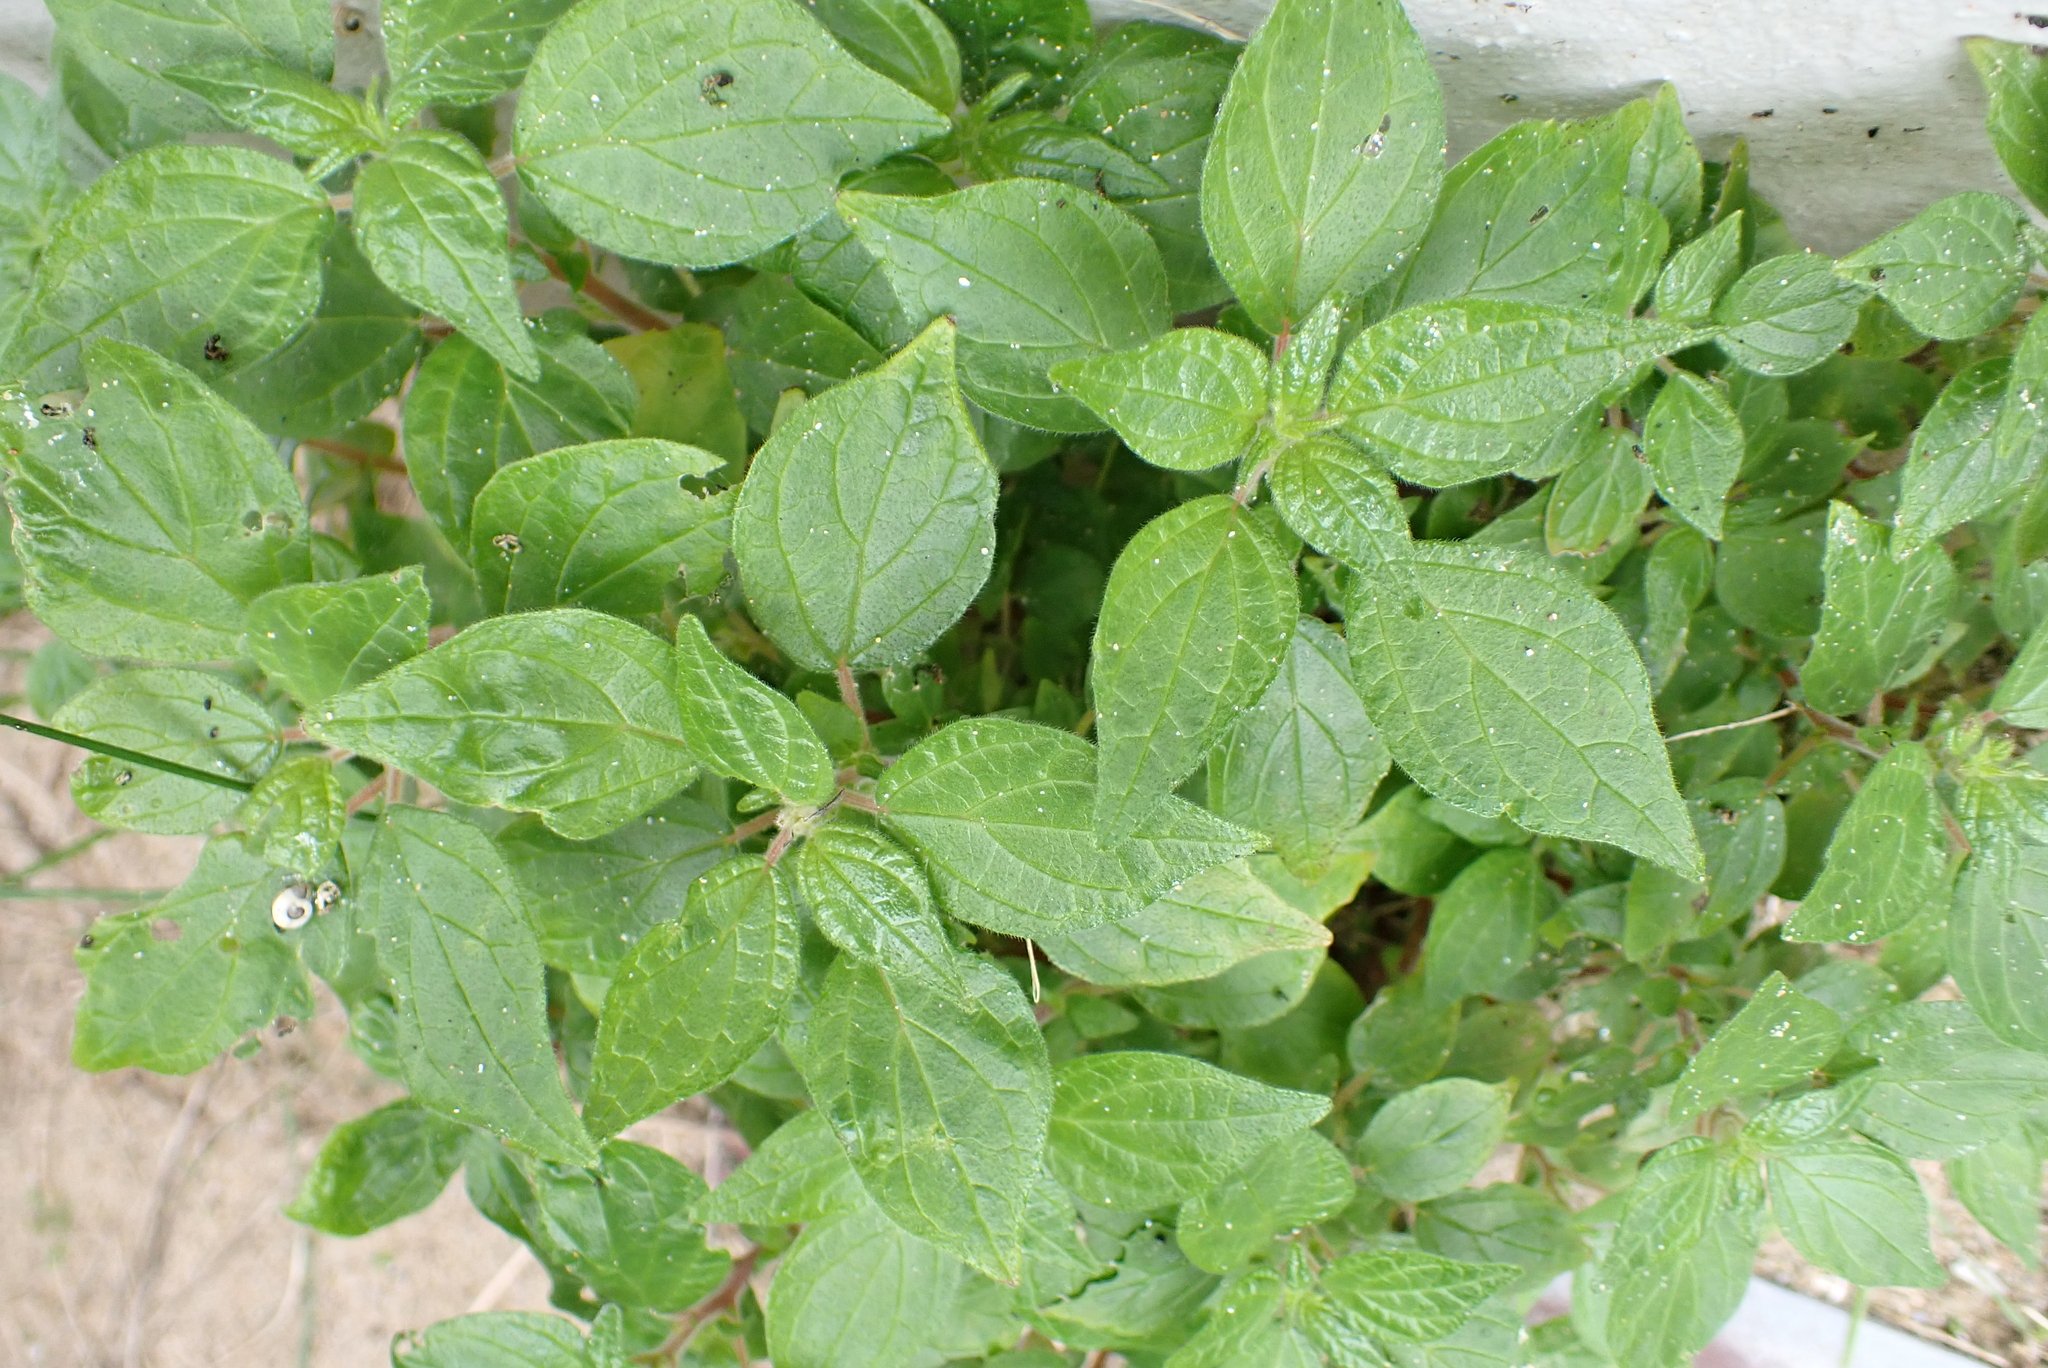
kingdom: Plantae
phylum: Tracheophyta
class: Magnoliopsida
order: Rosales
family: Urticaceae
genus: Parietaria
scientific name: Parietaria judaica
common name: Pellitory-of-the-wall
